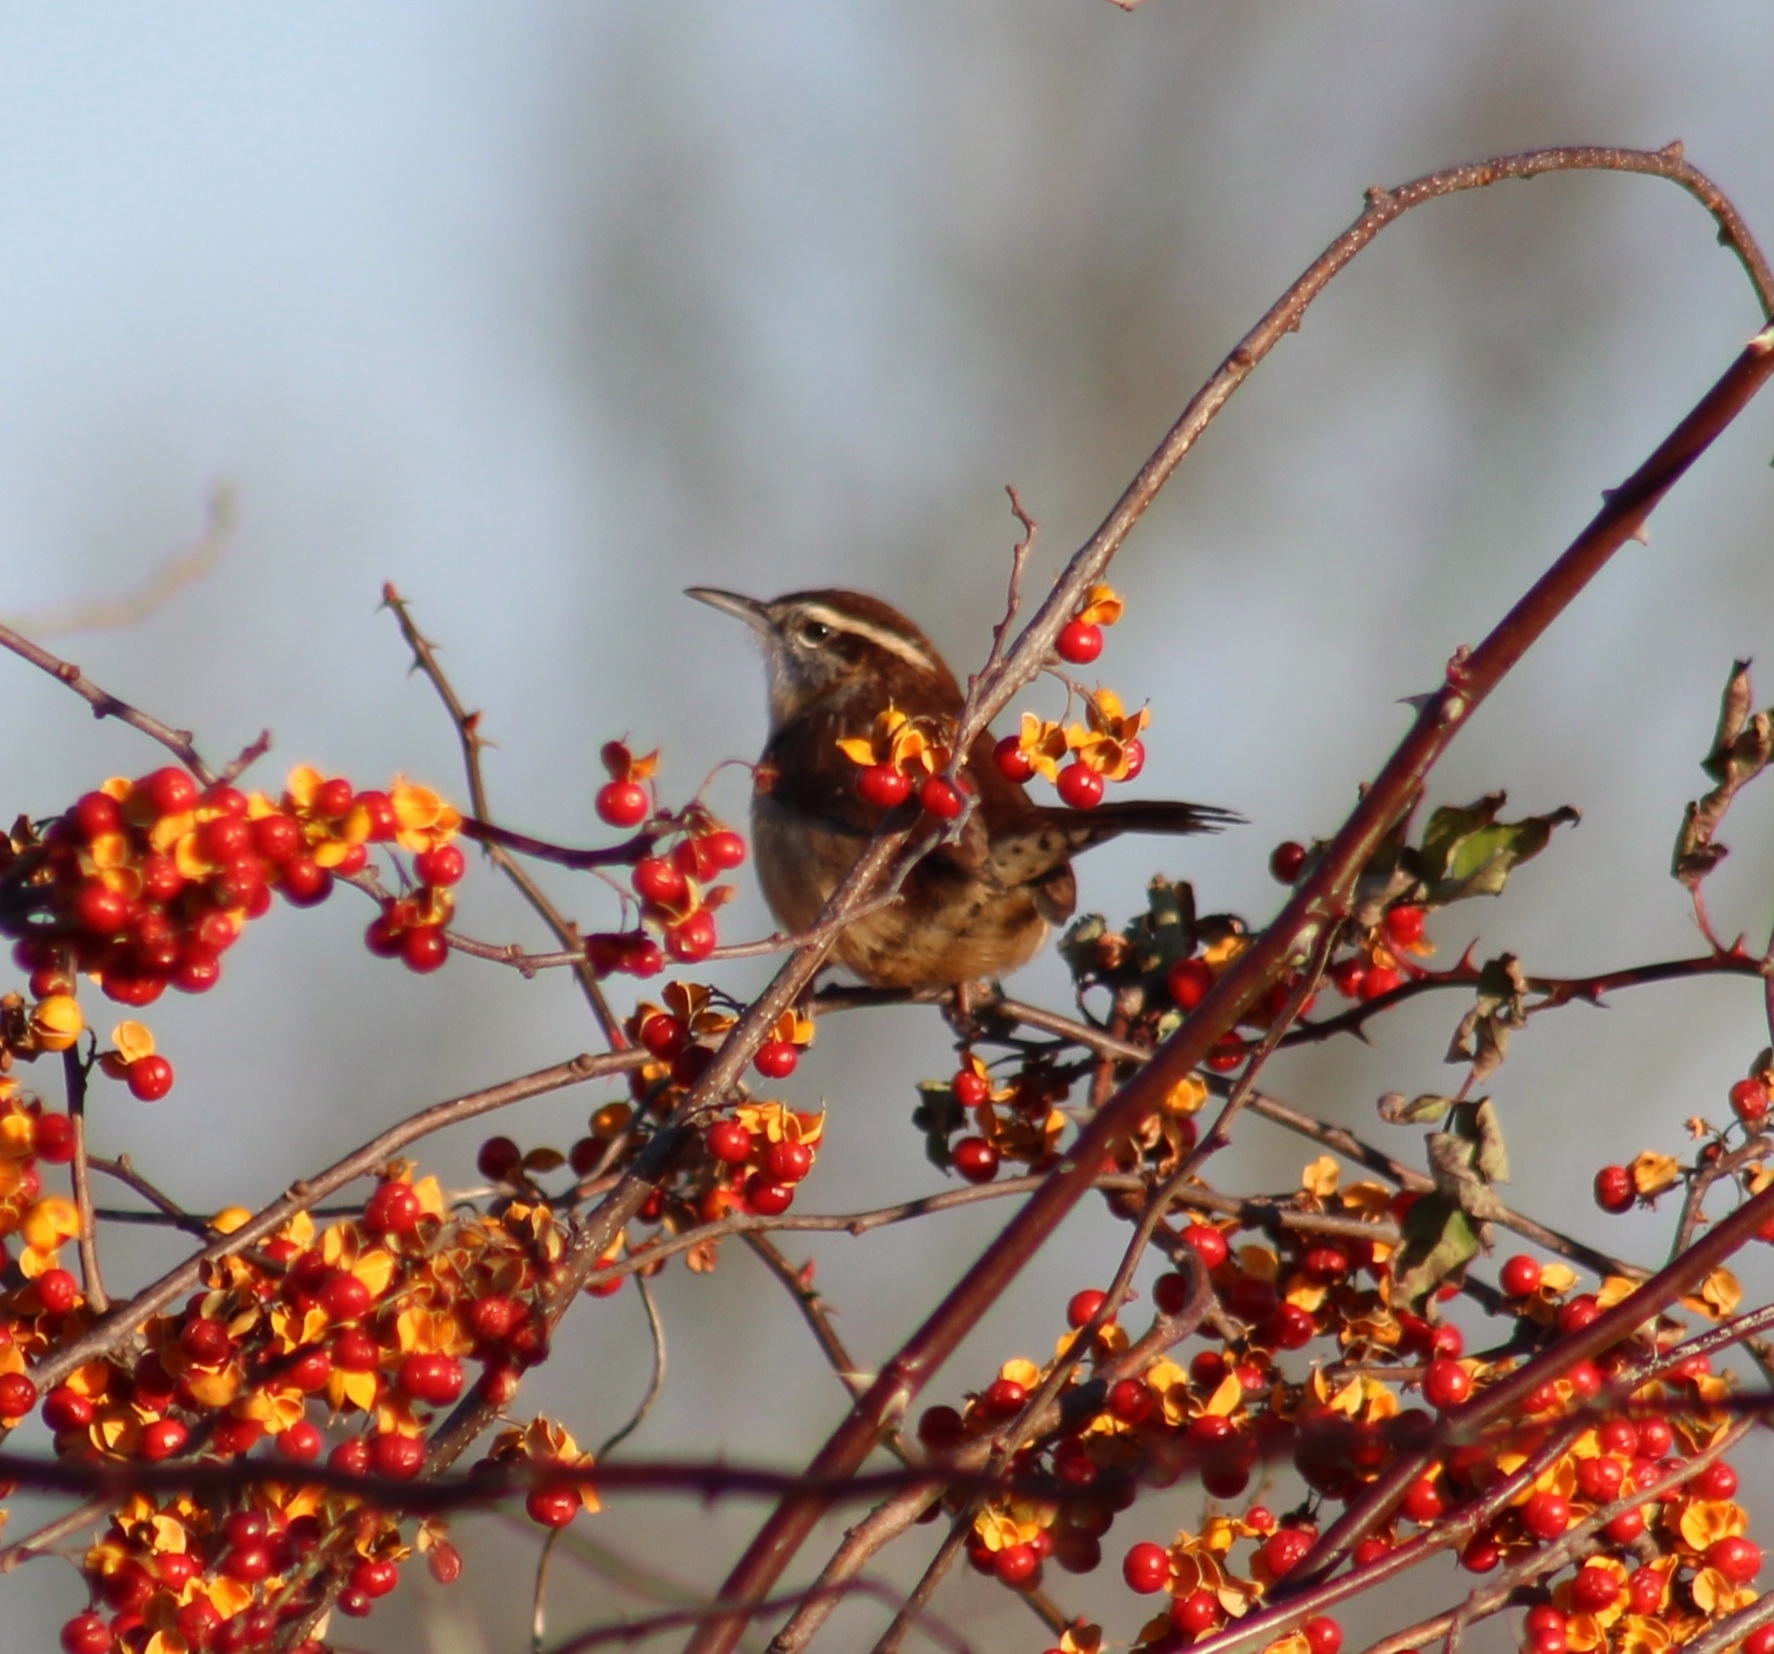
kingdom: Animalia
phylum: Chordata
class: Aves
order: Passeriformes
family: Troglodytidae
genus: Thryothorus
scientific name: Thryothorus ludovicianus
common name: Carolina wren
